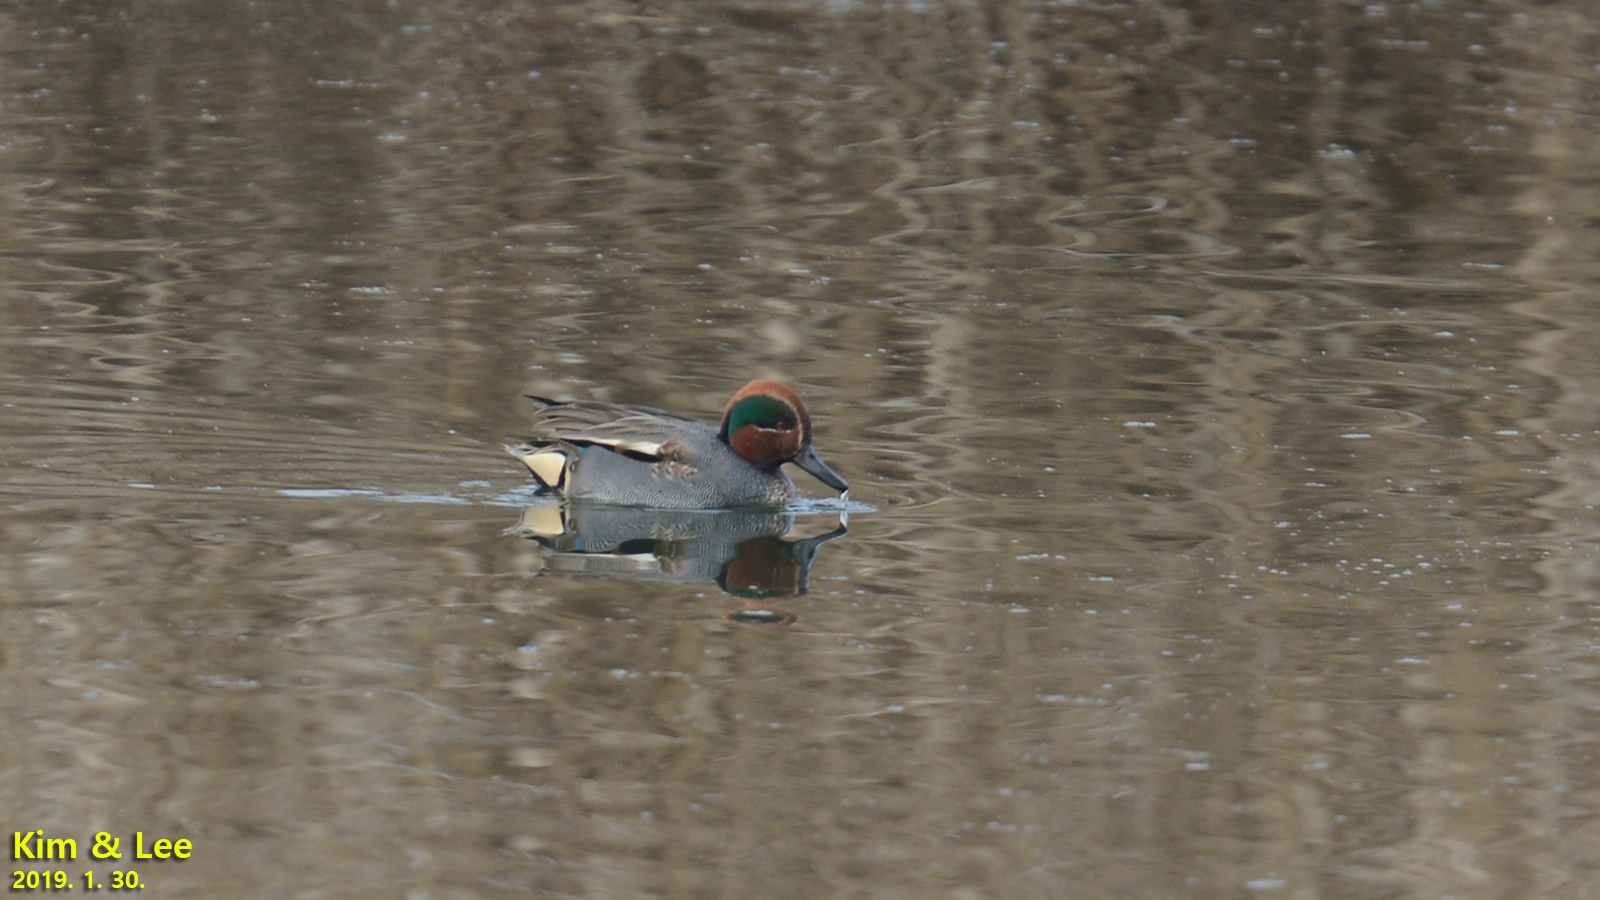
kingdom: Animalia
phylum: Chordata
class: Aves
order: Anseriformes
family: Anatidae
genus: Anas
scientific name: Anas crecca
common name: Eurasian teal
